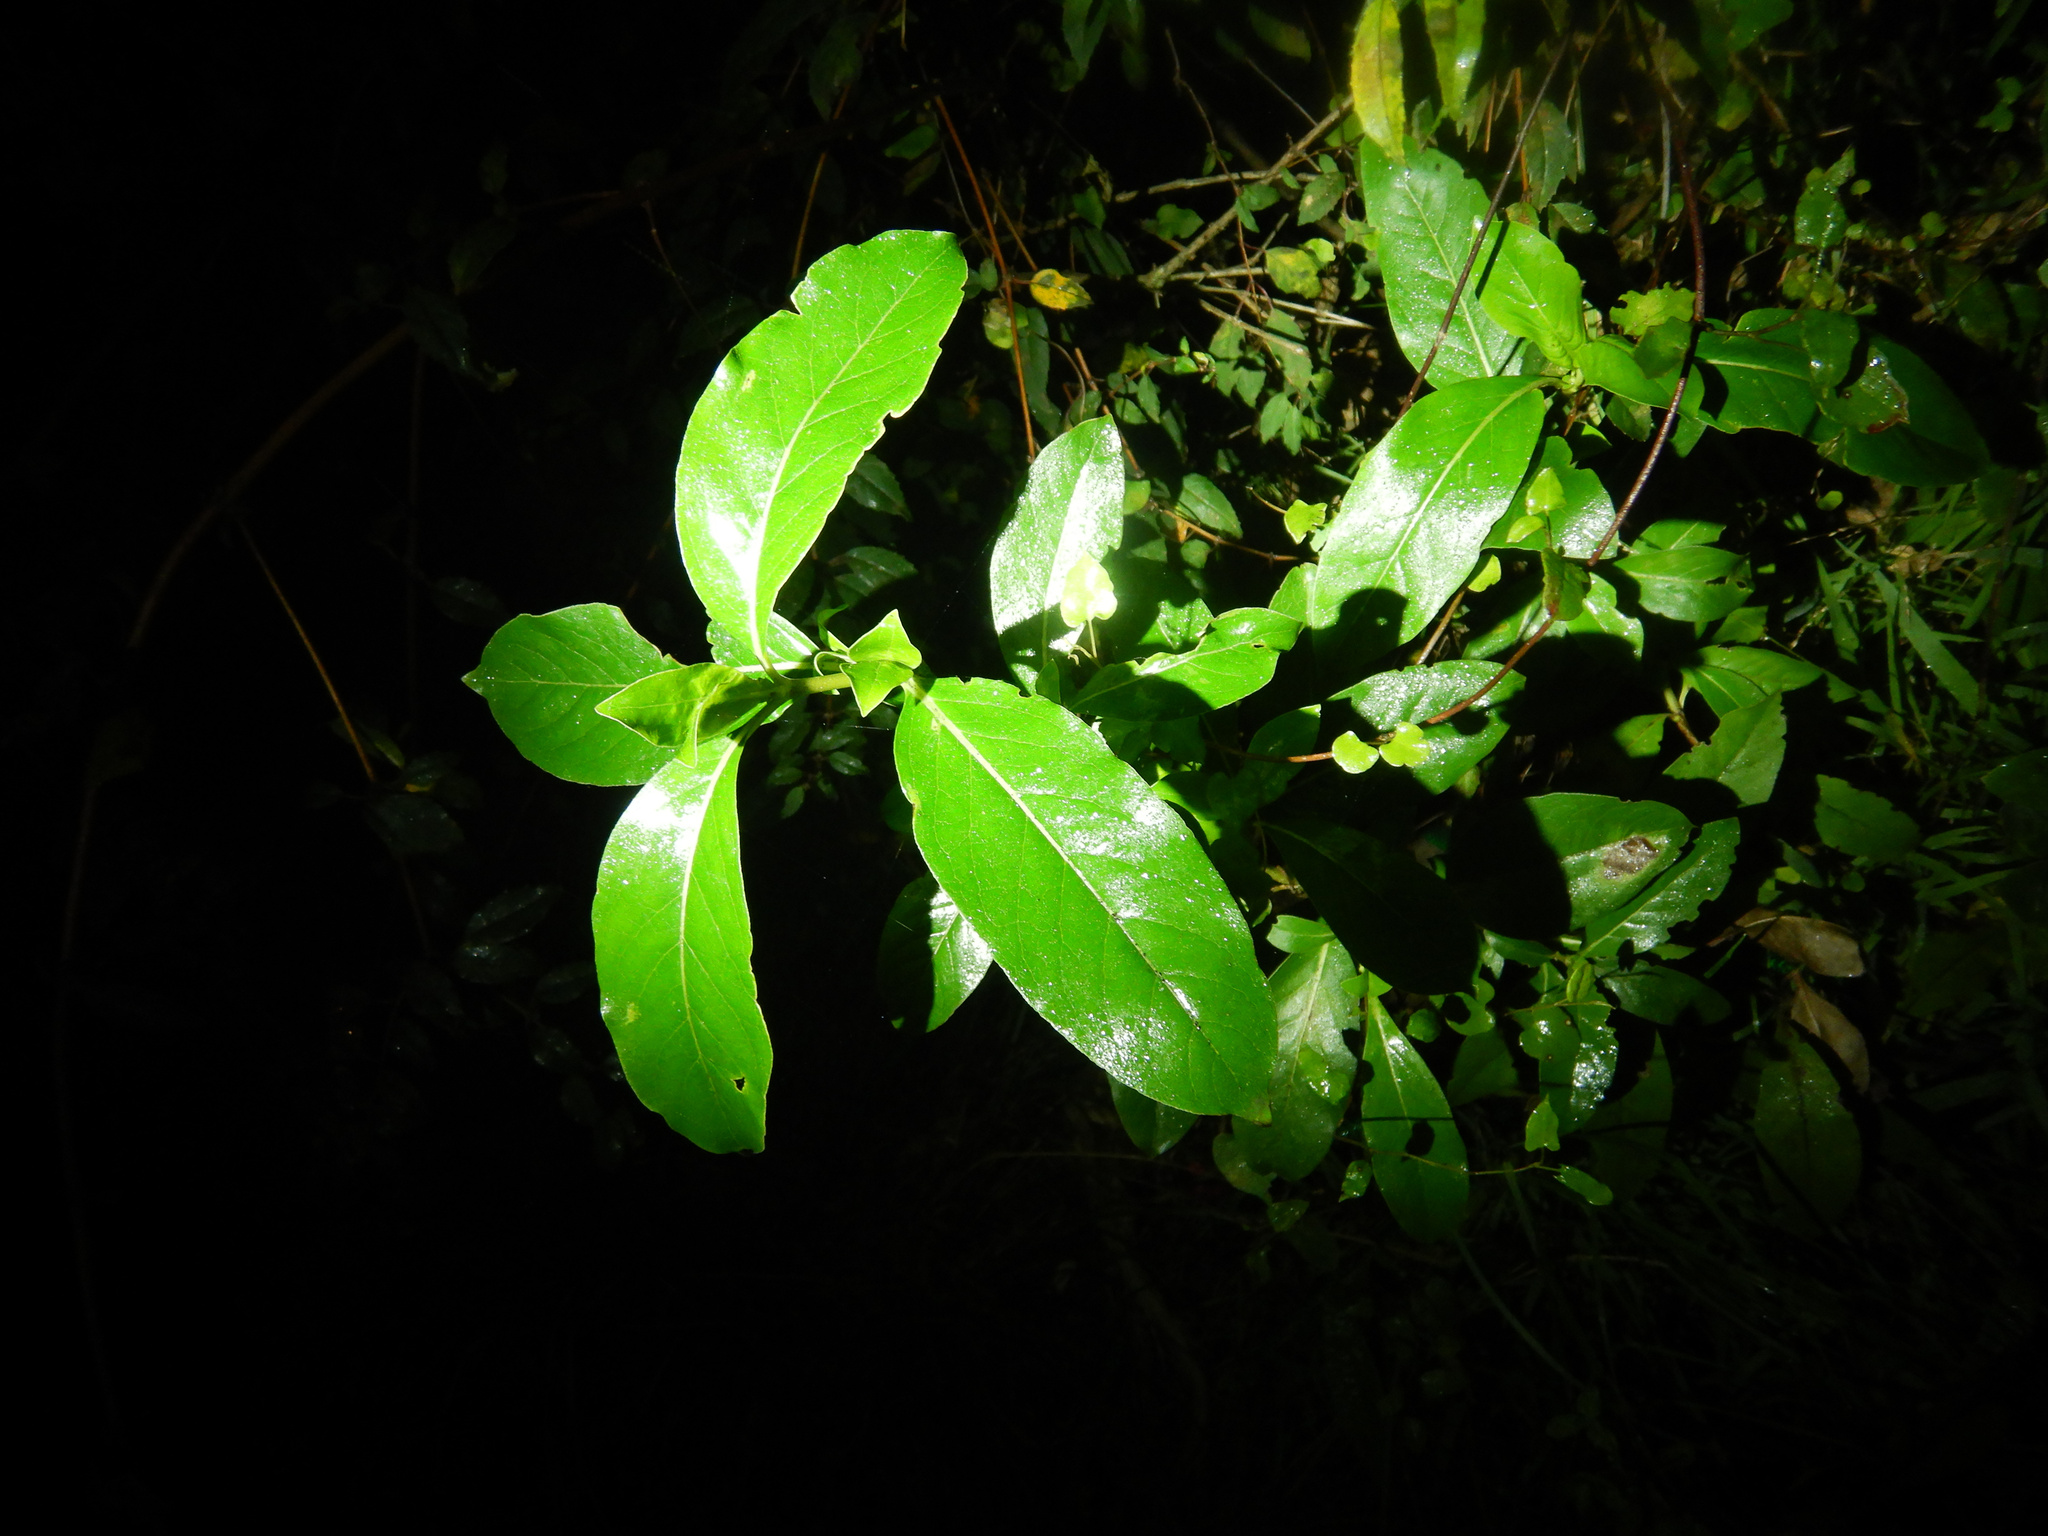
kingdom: Plantae
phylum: Tracheophyta
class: Magnoliopsida
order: Gentianales
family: Rubiaceae
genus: Coprosma
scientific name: Coprosma robusta
